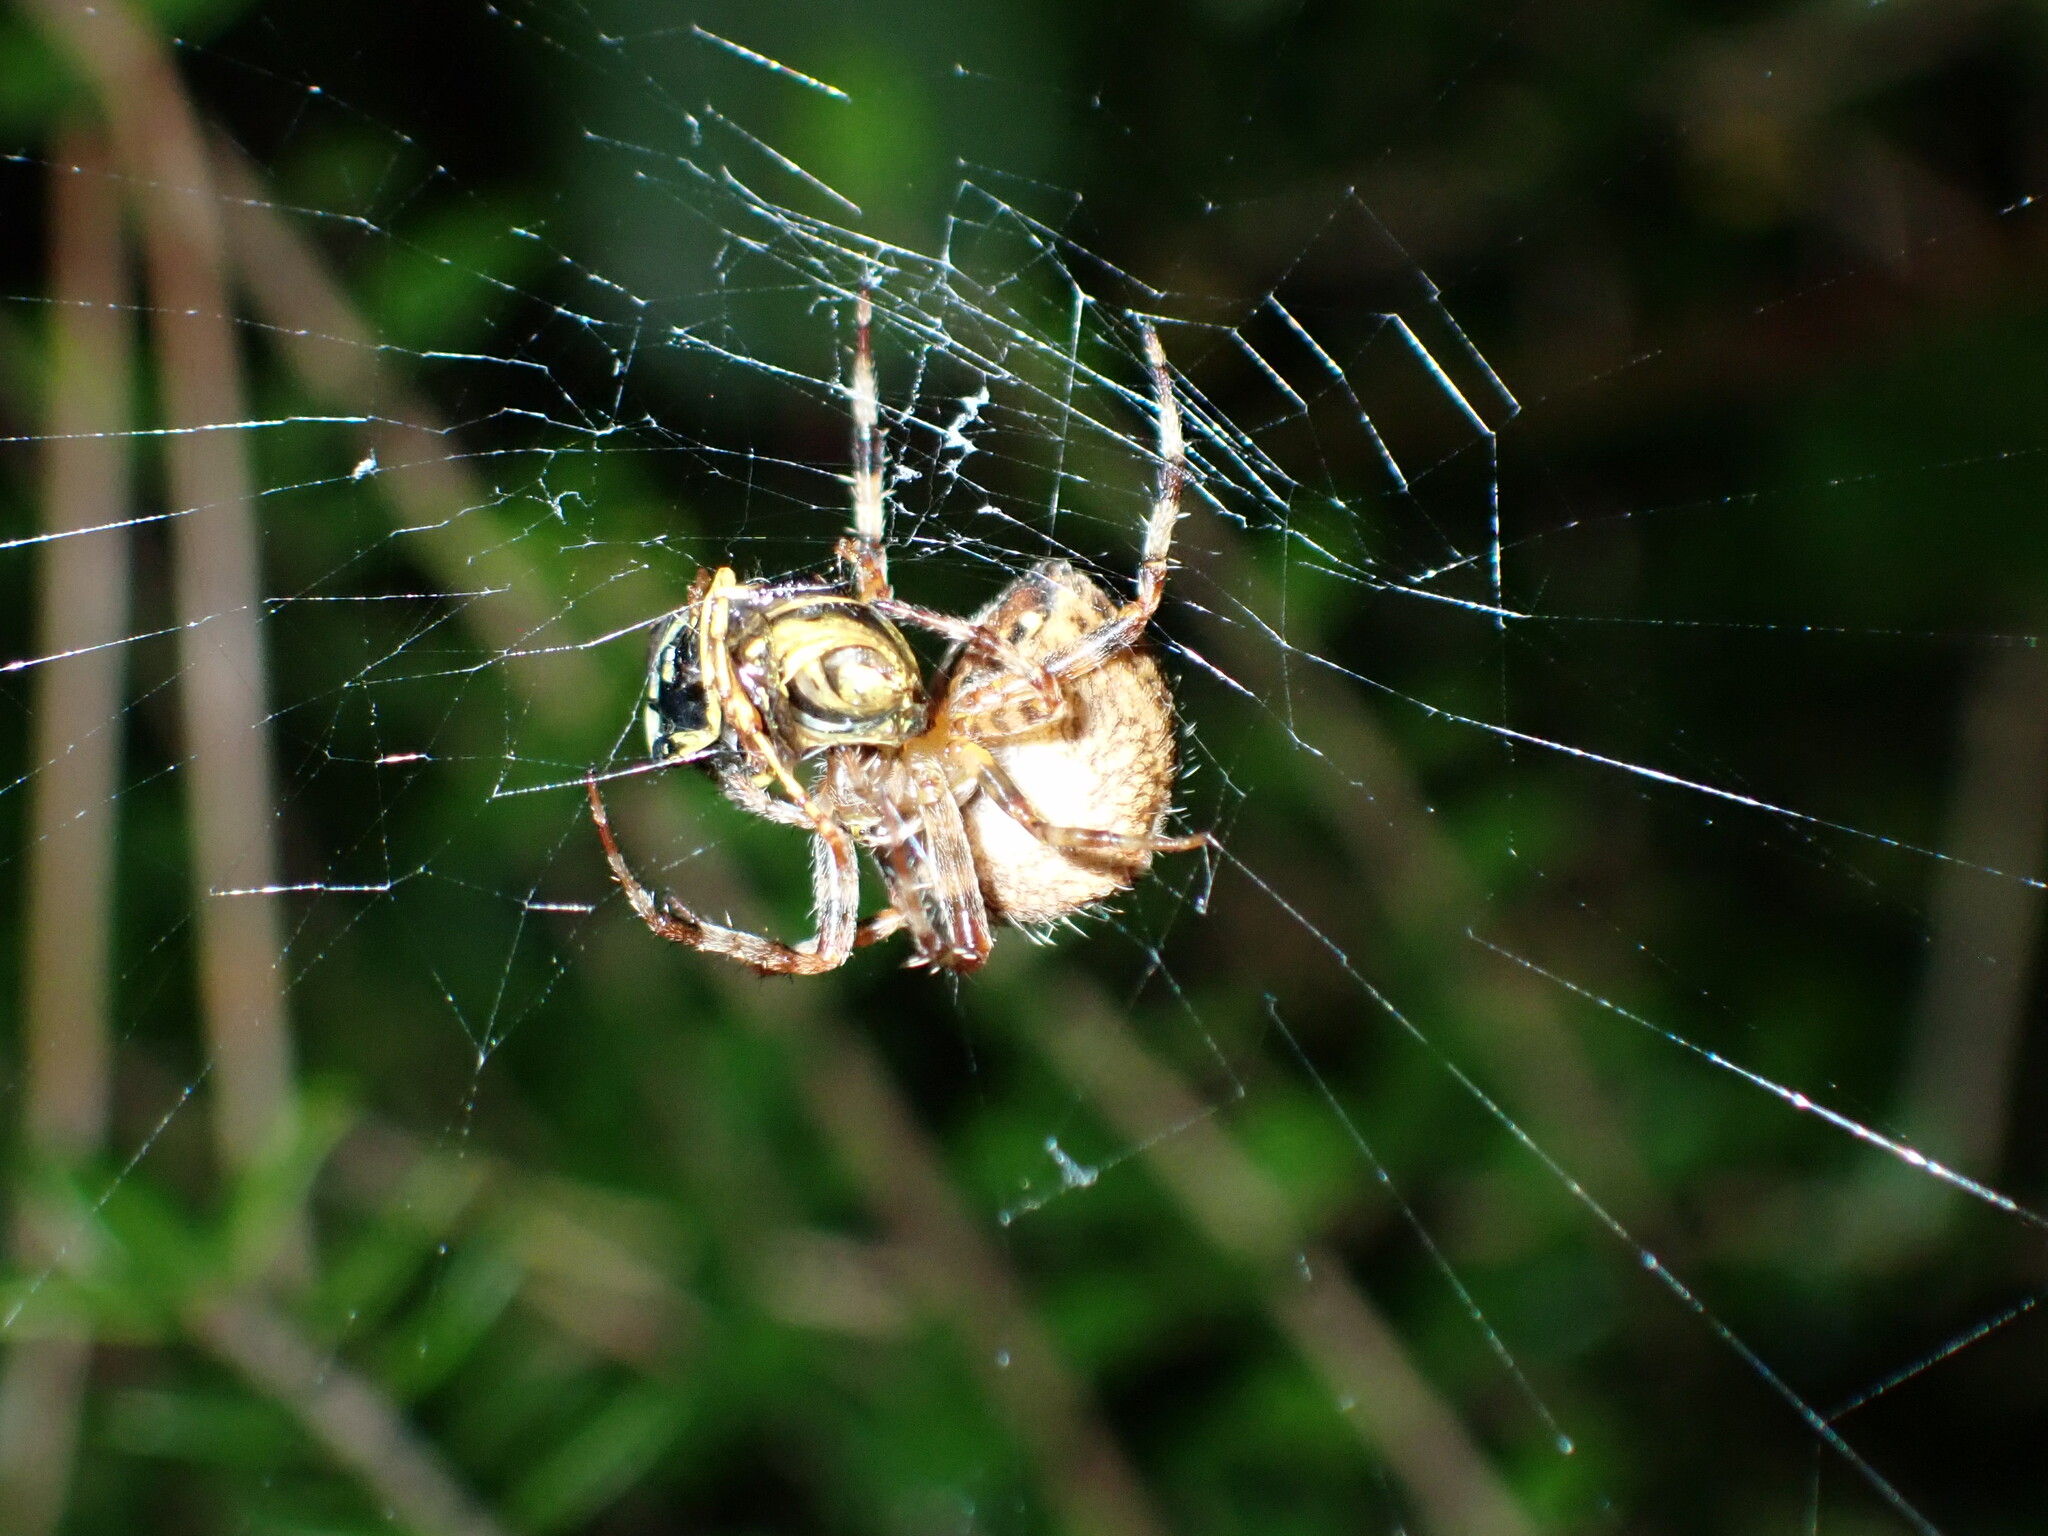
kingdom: Animalia
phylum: Arthropoda
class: Arachnida
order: Araneae
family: Araneidae
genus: Araneus
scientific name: Araneus diadematus
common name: Cross orbweaver
